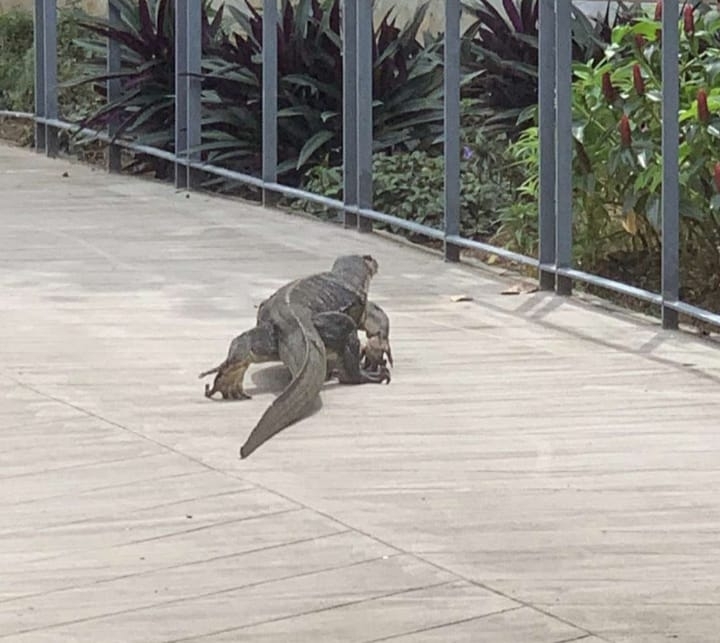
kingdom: Animalia
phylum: Chordata
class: Squamata
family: Varanidae
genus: Varanus
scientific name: Varanus salvator
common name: Common water monitor
